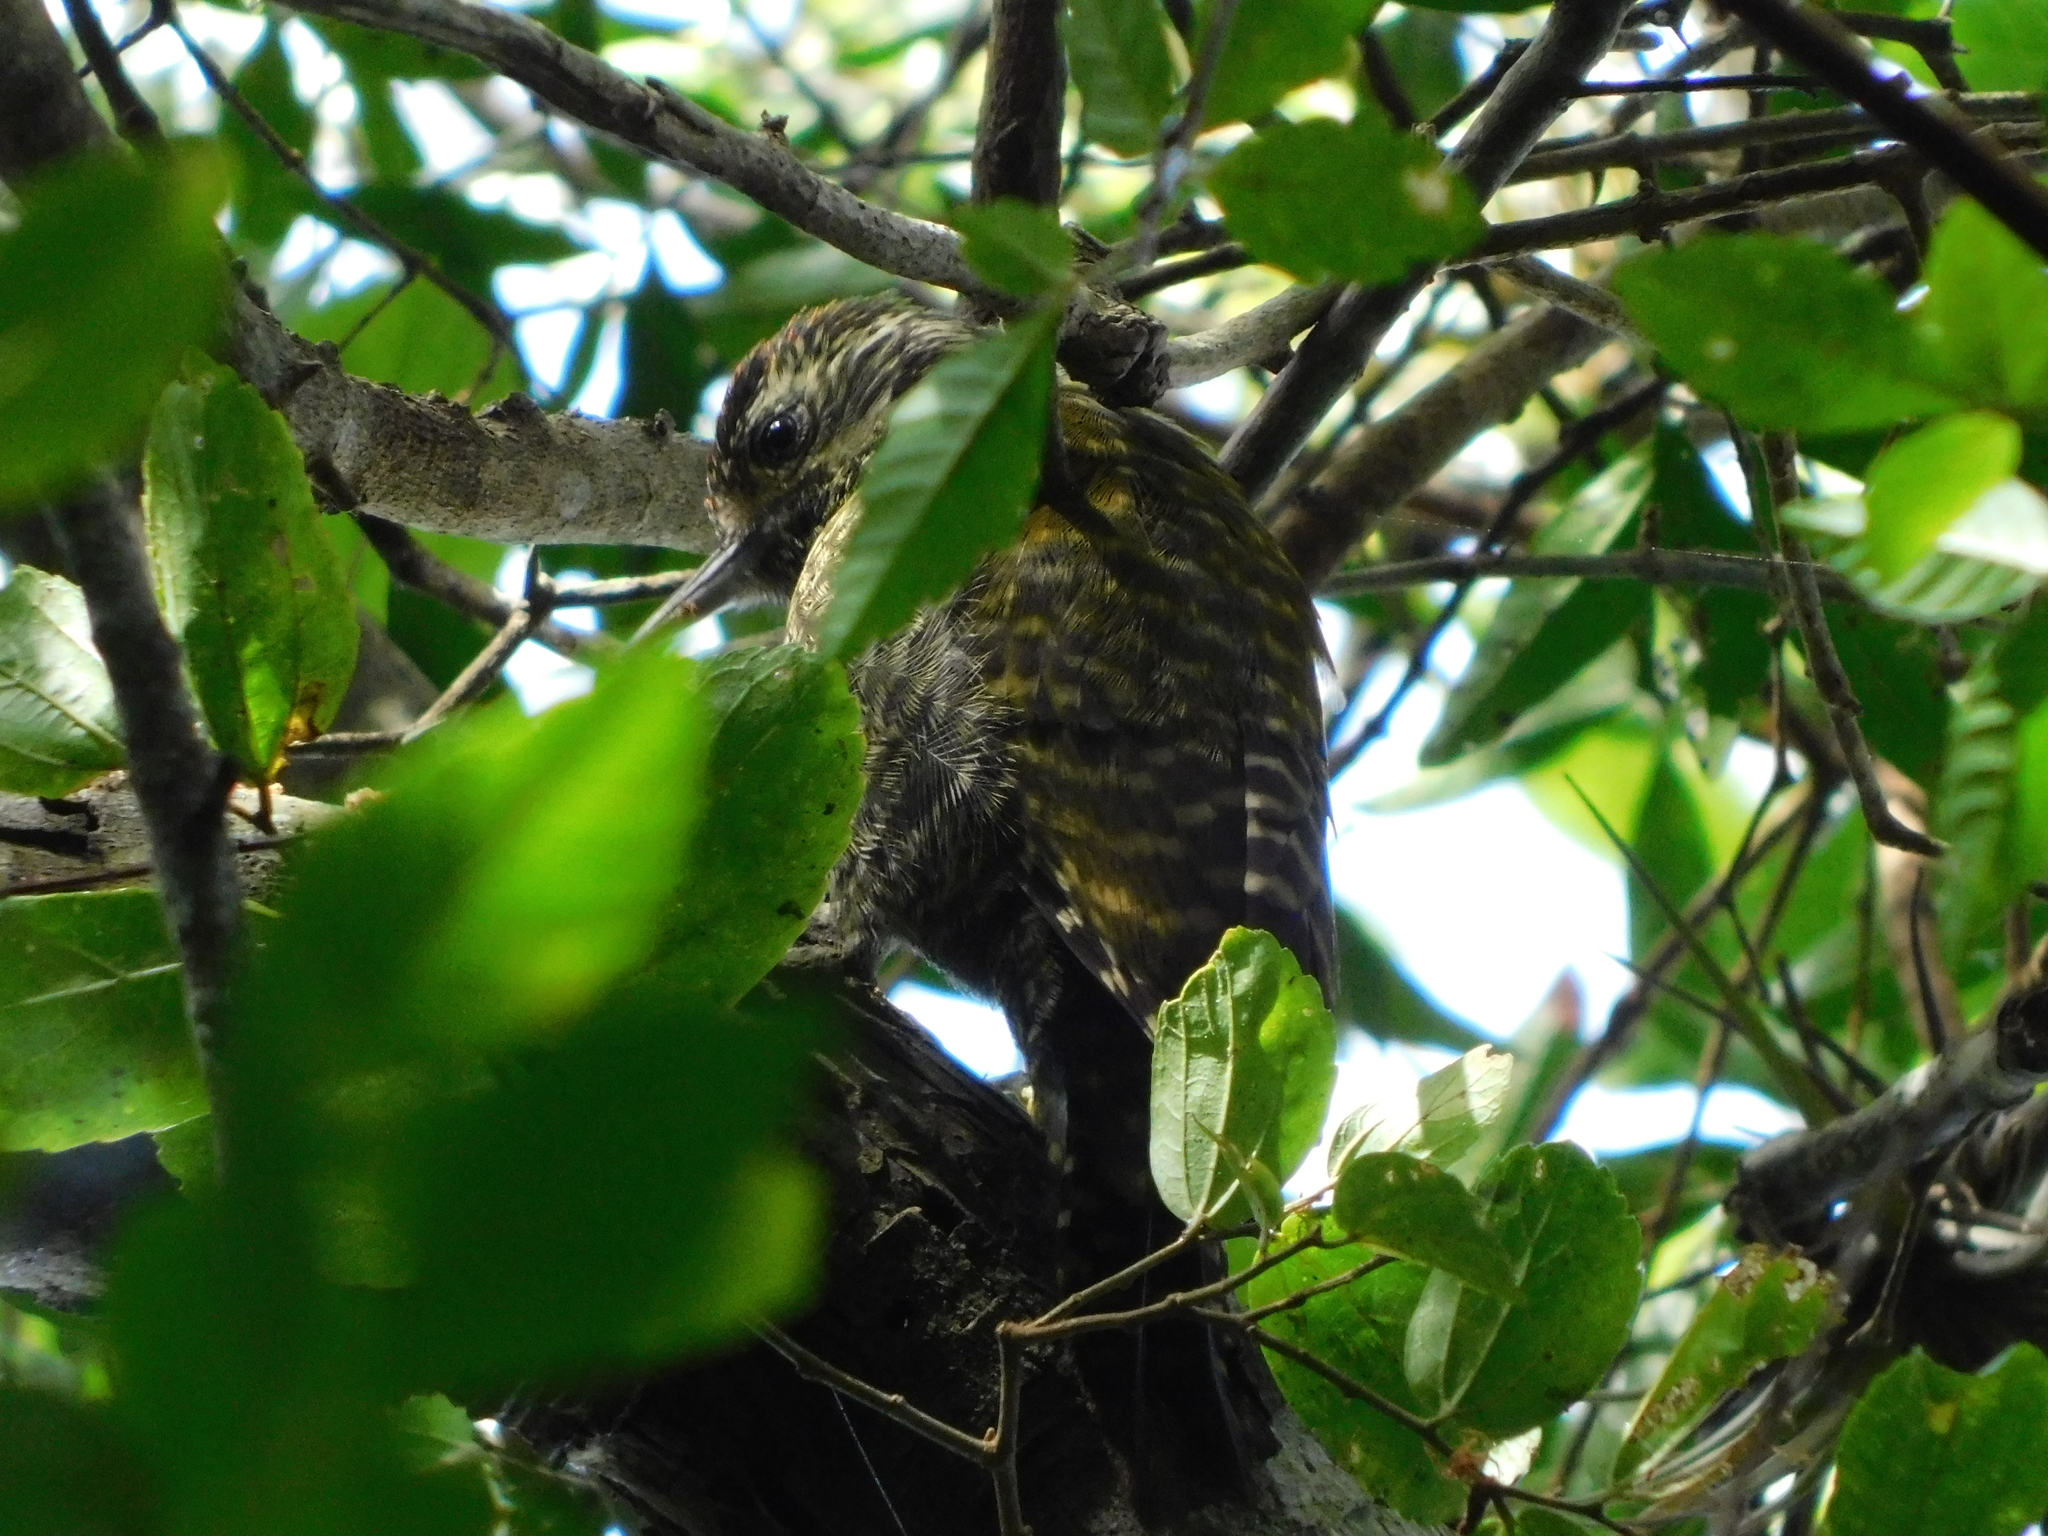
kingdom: Animalia
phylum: Chordata
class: Aves
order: Piciformes
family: Picidae
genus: Veniliornis
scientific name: Veniliornis spilogaster
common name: White-spotted woodpecker
